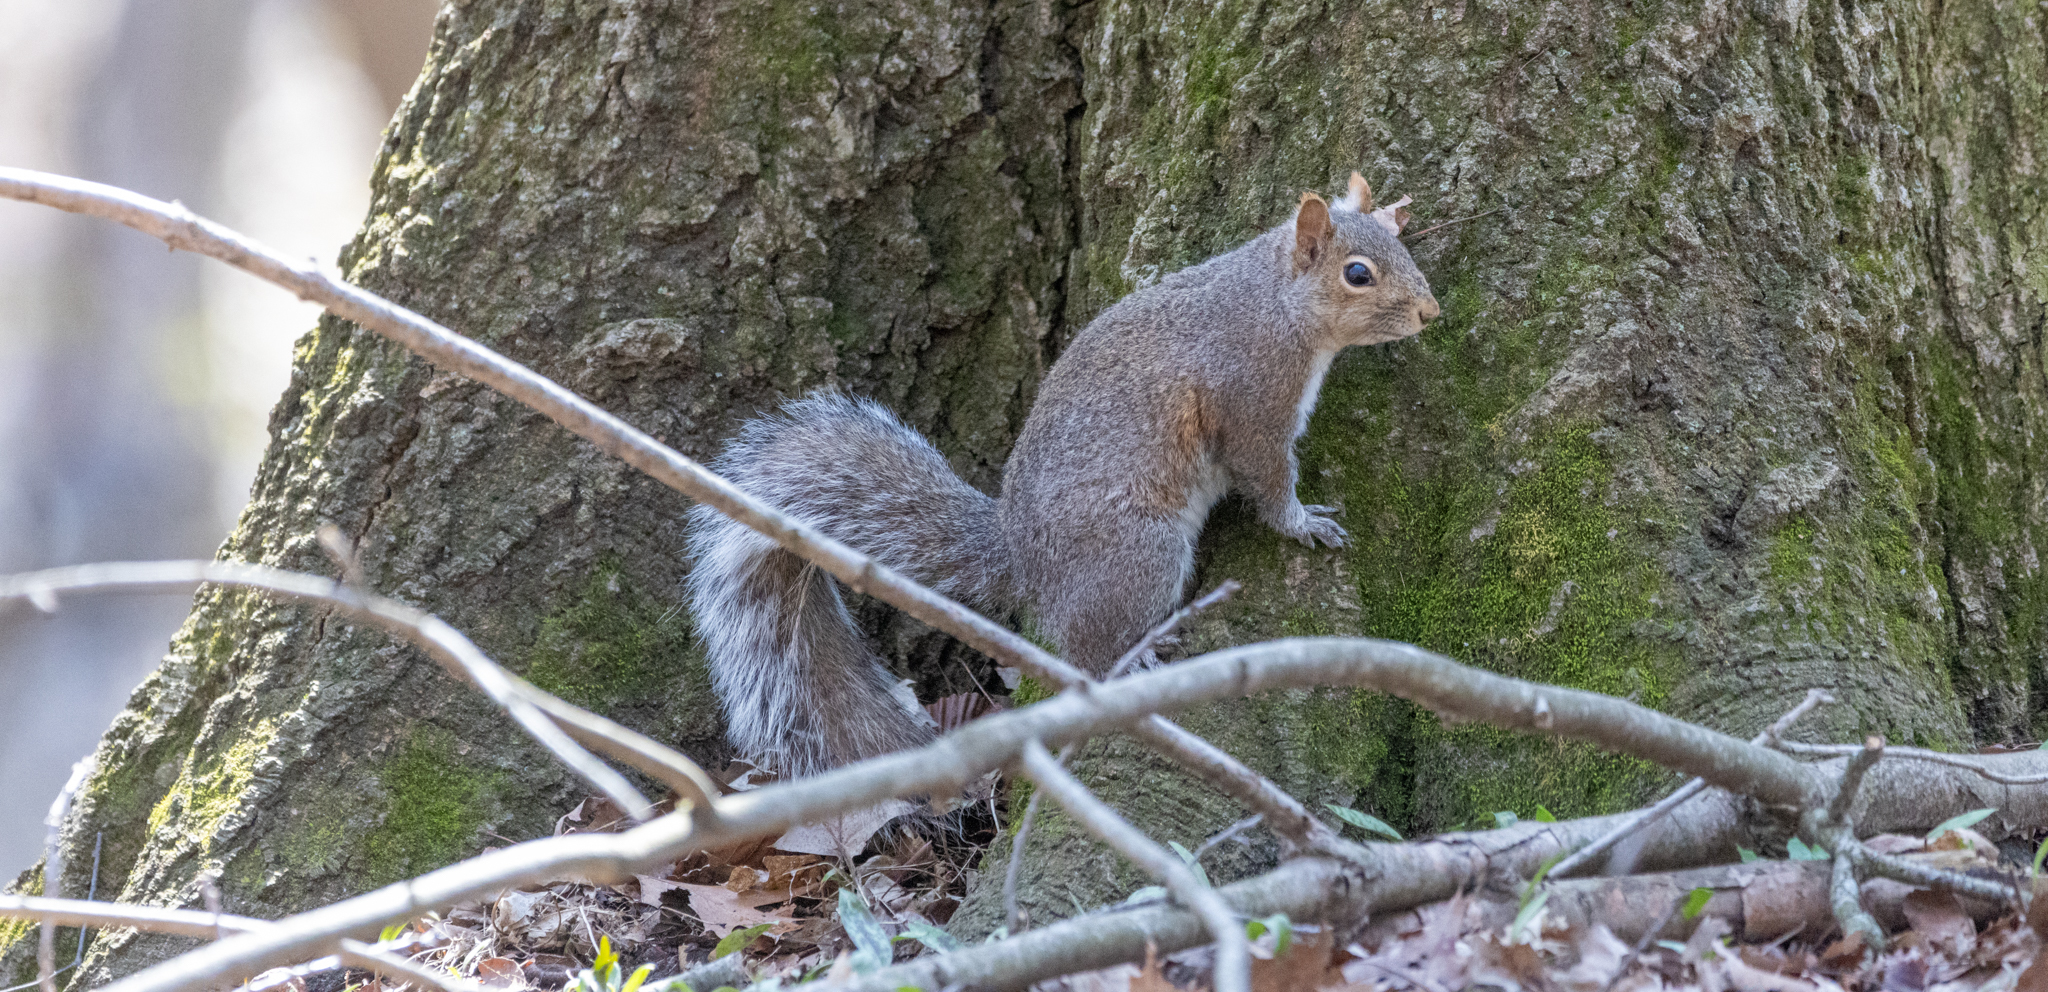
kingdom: Animalia
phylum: Chordata
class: Mammalia
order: Rodentia
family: Sciuridae
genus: Sciurus
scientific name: Sciurus carolinensis
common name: Eastern gray squirrel
